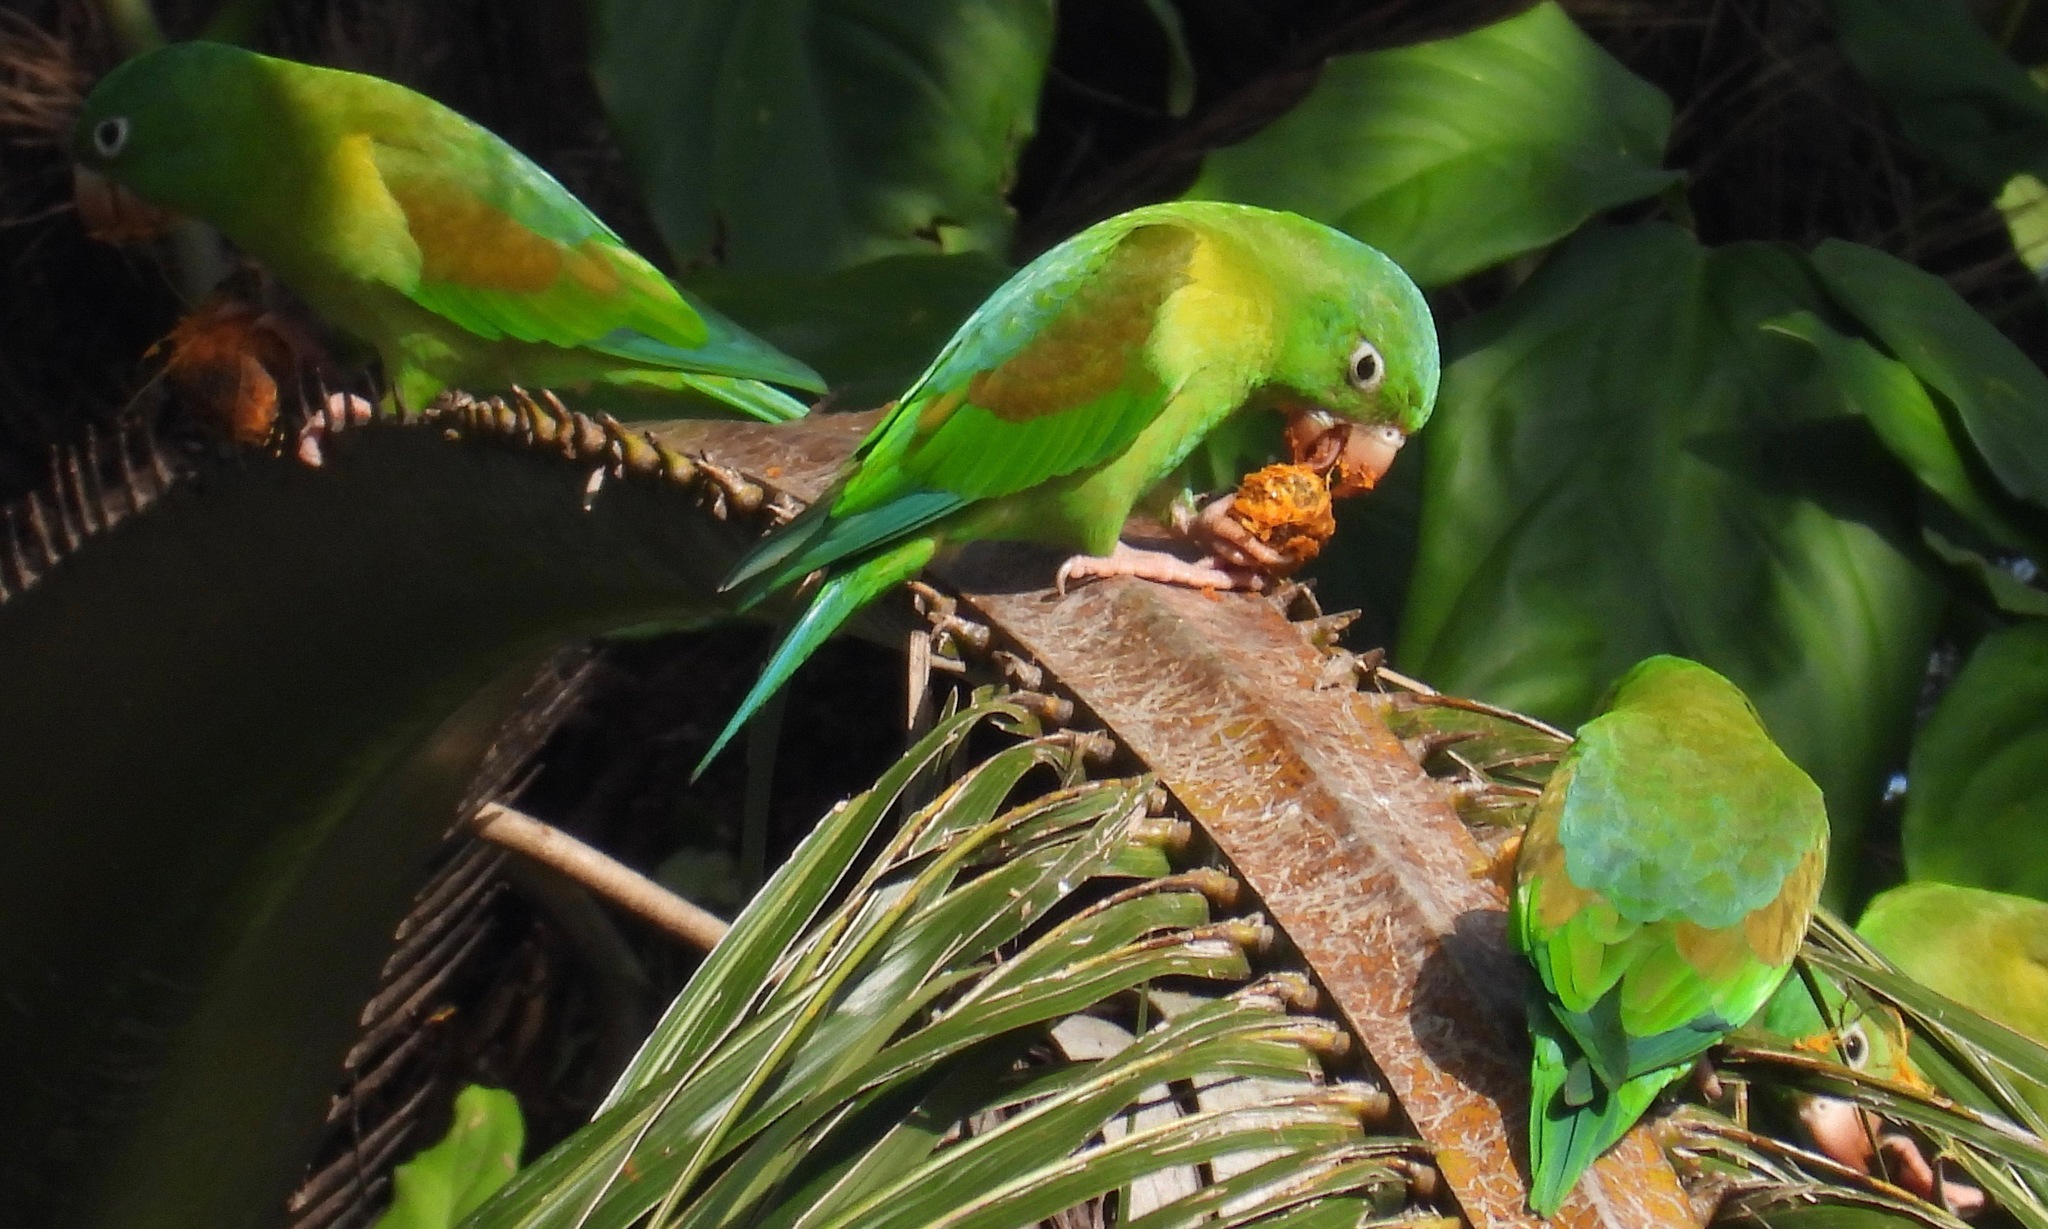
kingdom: Animalia
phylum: Chordata
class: Aves
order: Psittaciformes
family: Psittacidae
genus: Brotogeris
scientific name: Brotogeris jugularis
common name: Orange-chinned parakeet
